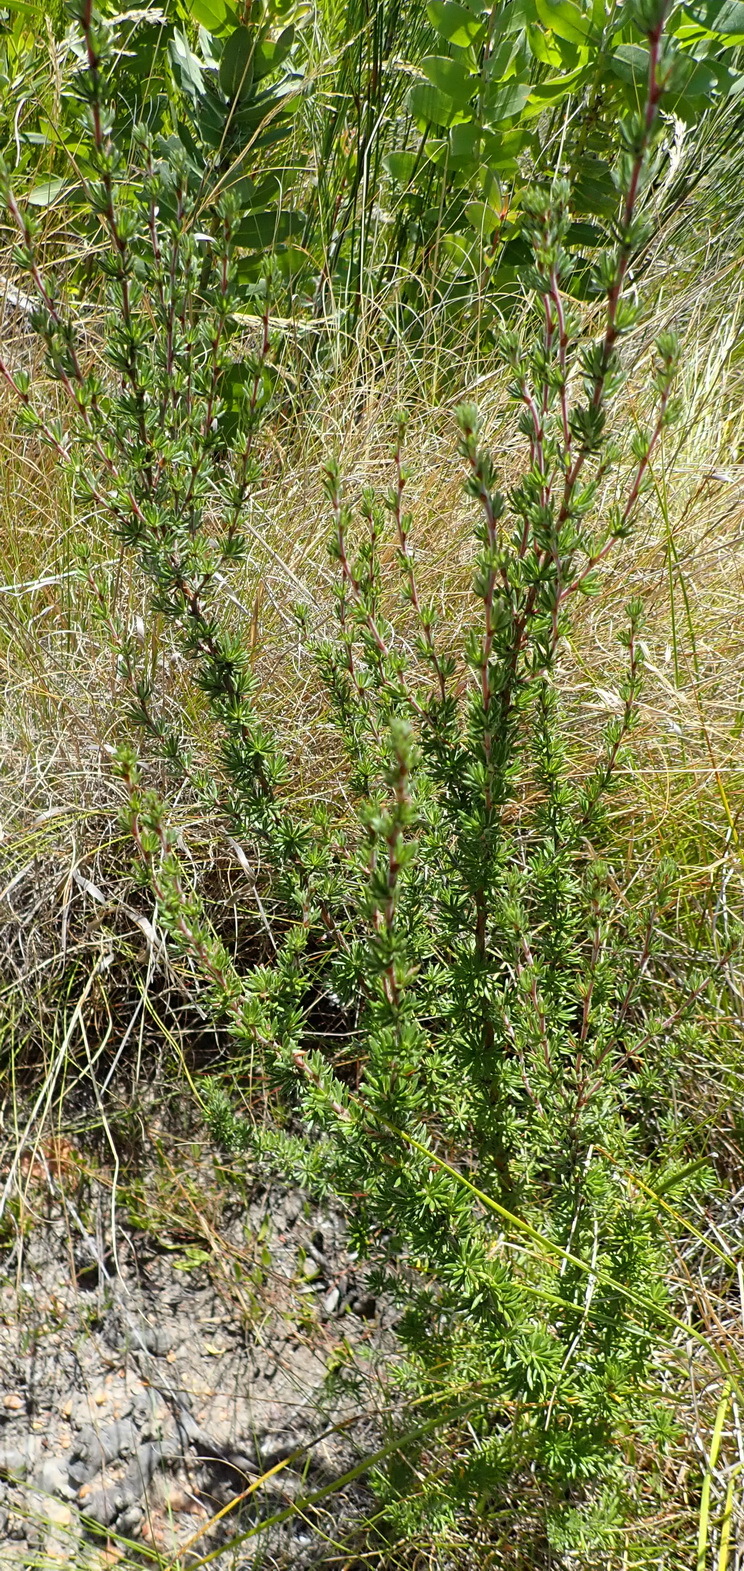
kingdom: Plantae
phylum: Tracheophyta
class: Magnoliopsida
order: Rosales
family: Rosaceae
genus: Cliffortia
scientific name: Cliffortia stricta
